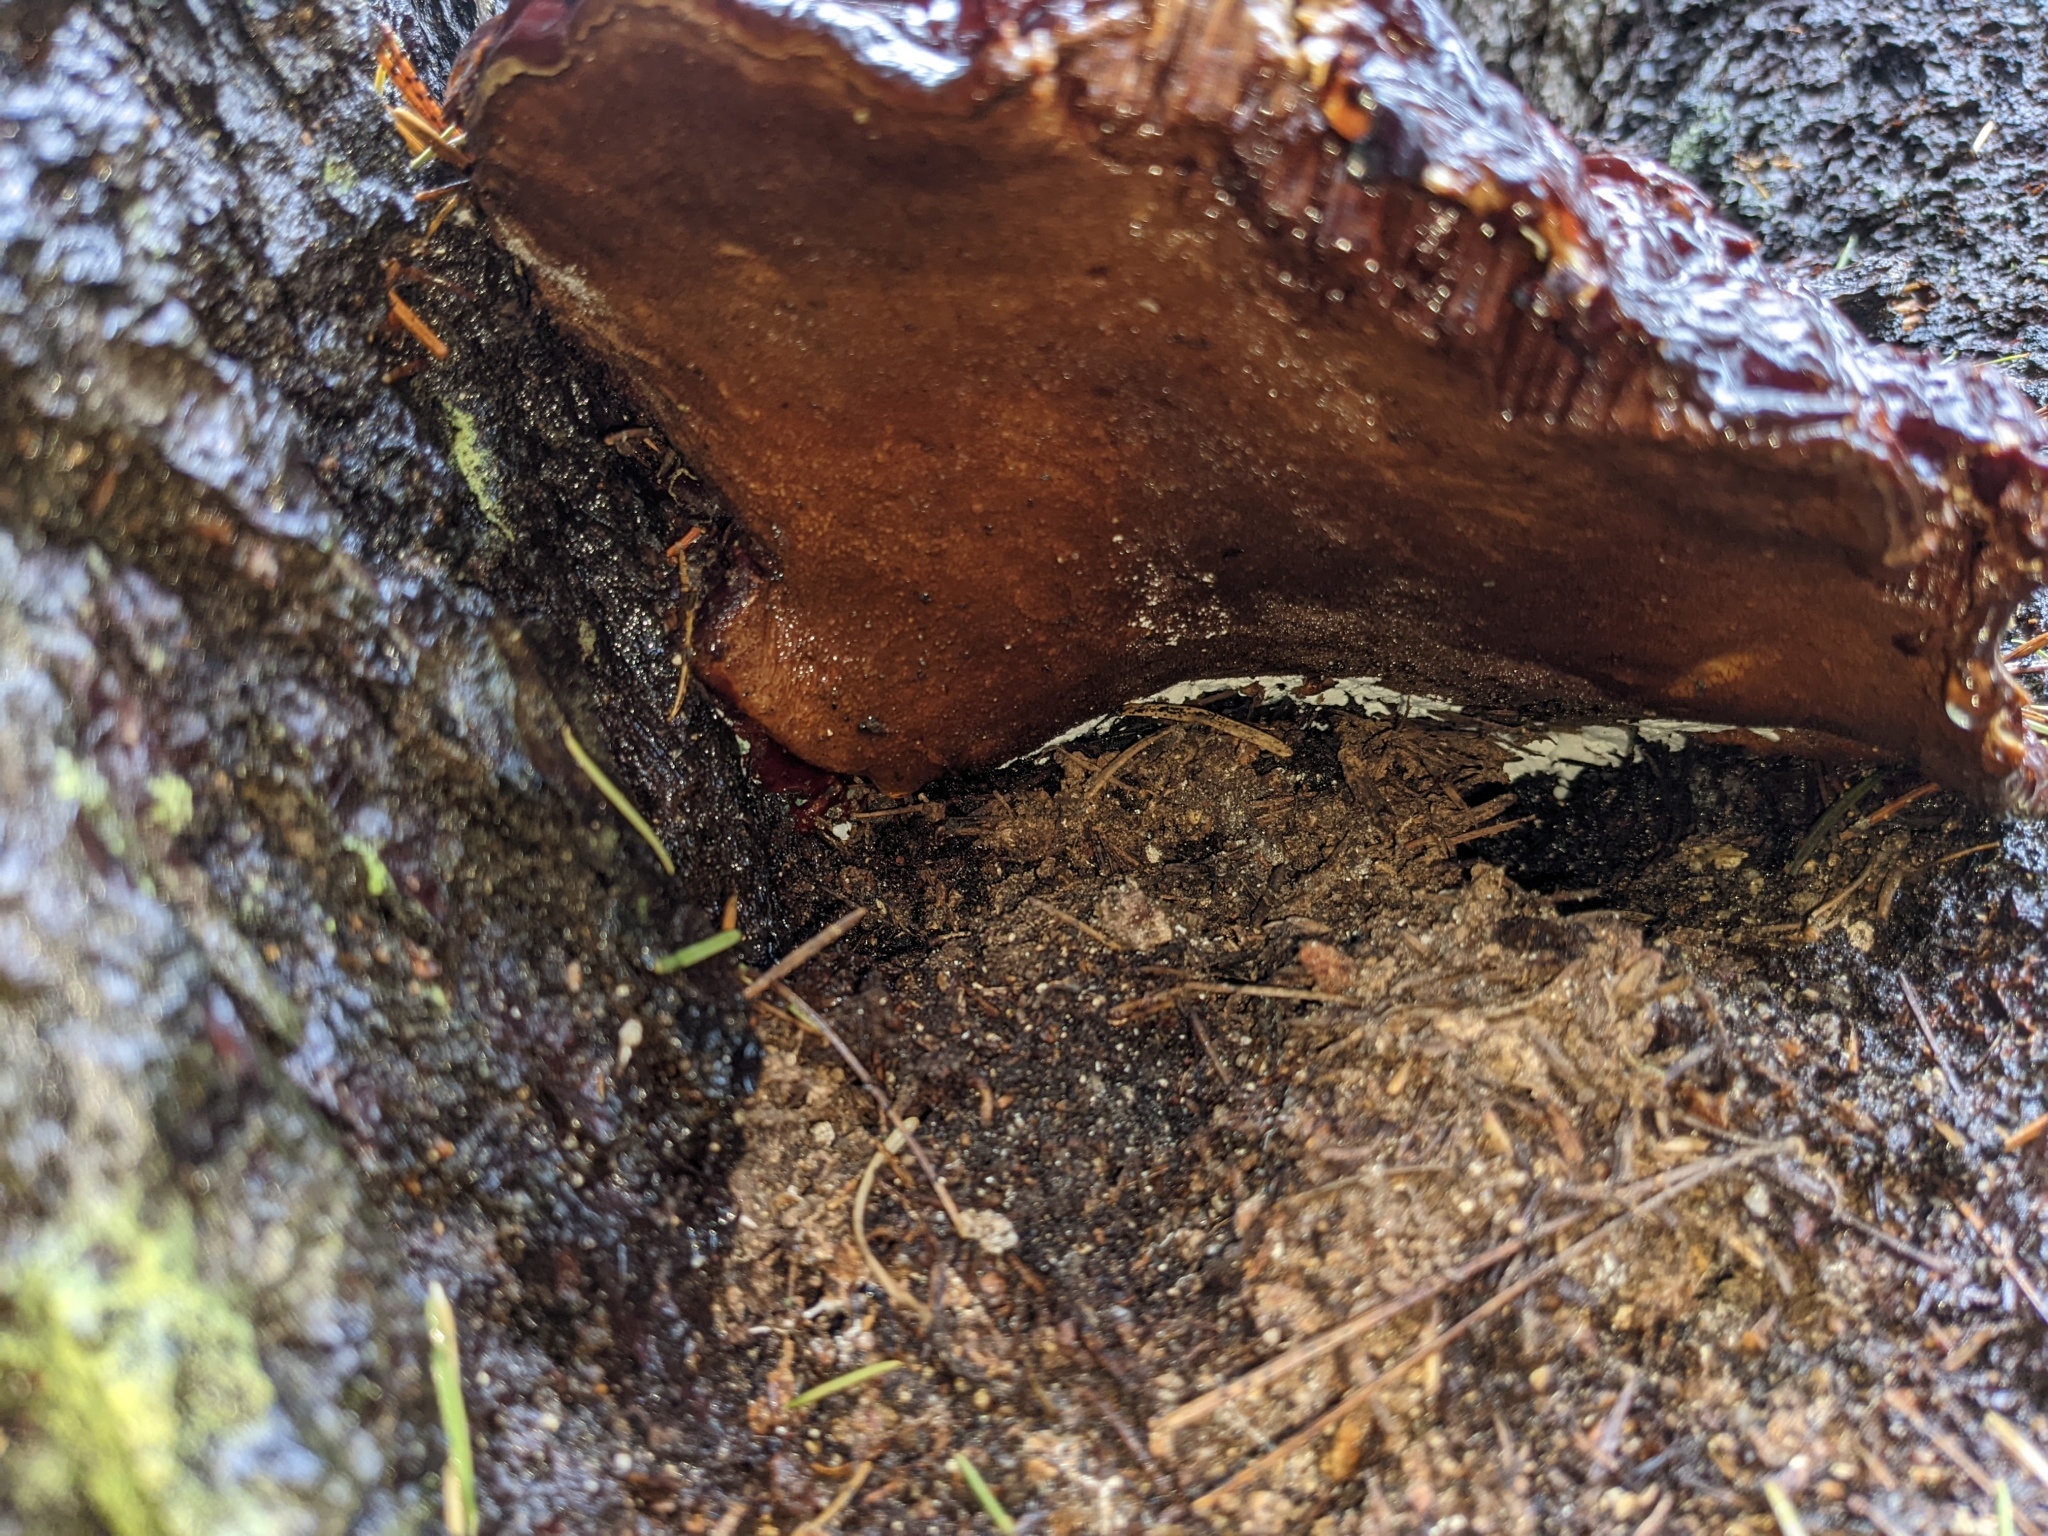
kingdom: Fungi
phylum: Basidiomycota
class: Agaricomycetes
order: Polyporales
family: Polyporaceae
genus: Ganoderma
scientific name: Ganoderma oregonense
